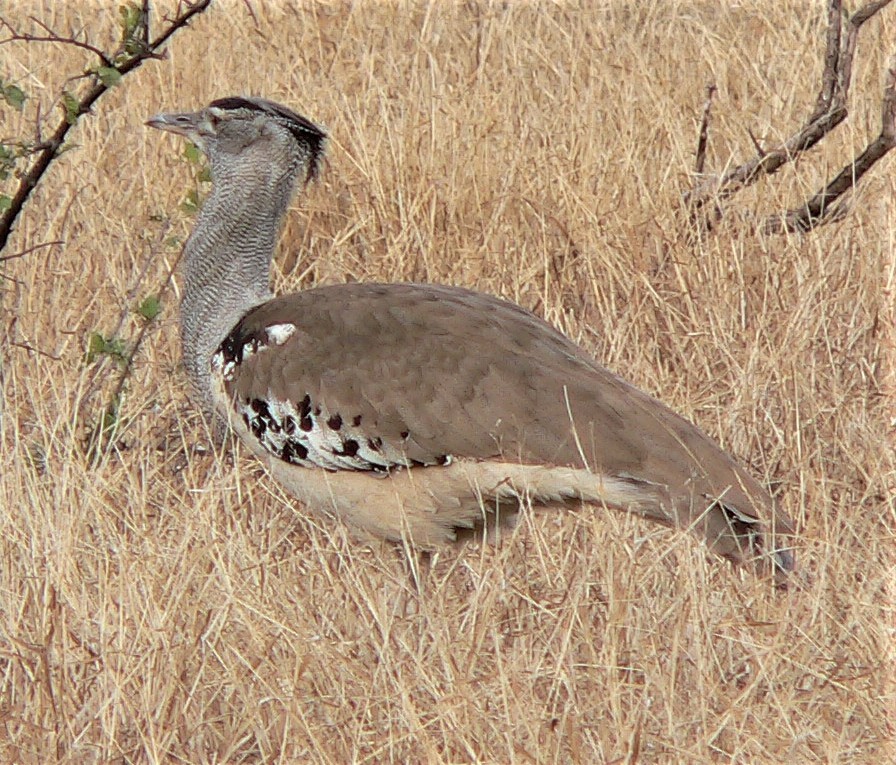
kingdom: Animalia
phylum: Chordata
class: Aves
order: Otidiformes
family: Otididae
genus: Ardeotis
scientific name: Ardeotis kori
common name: Kori bustard
